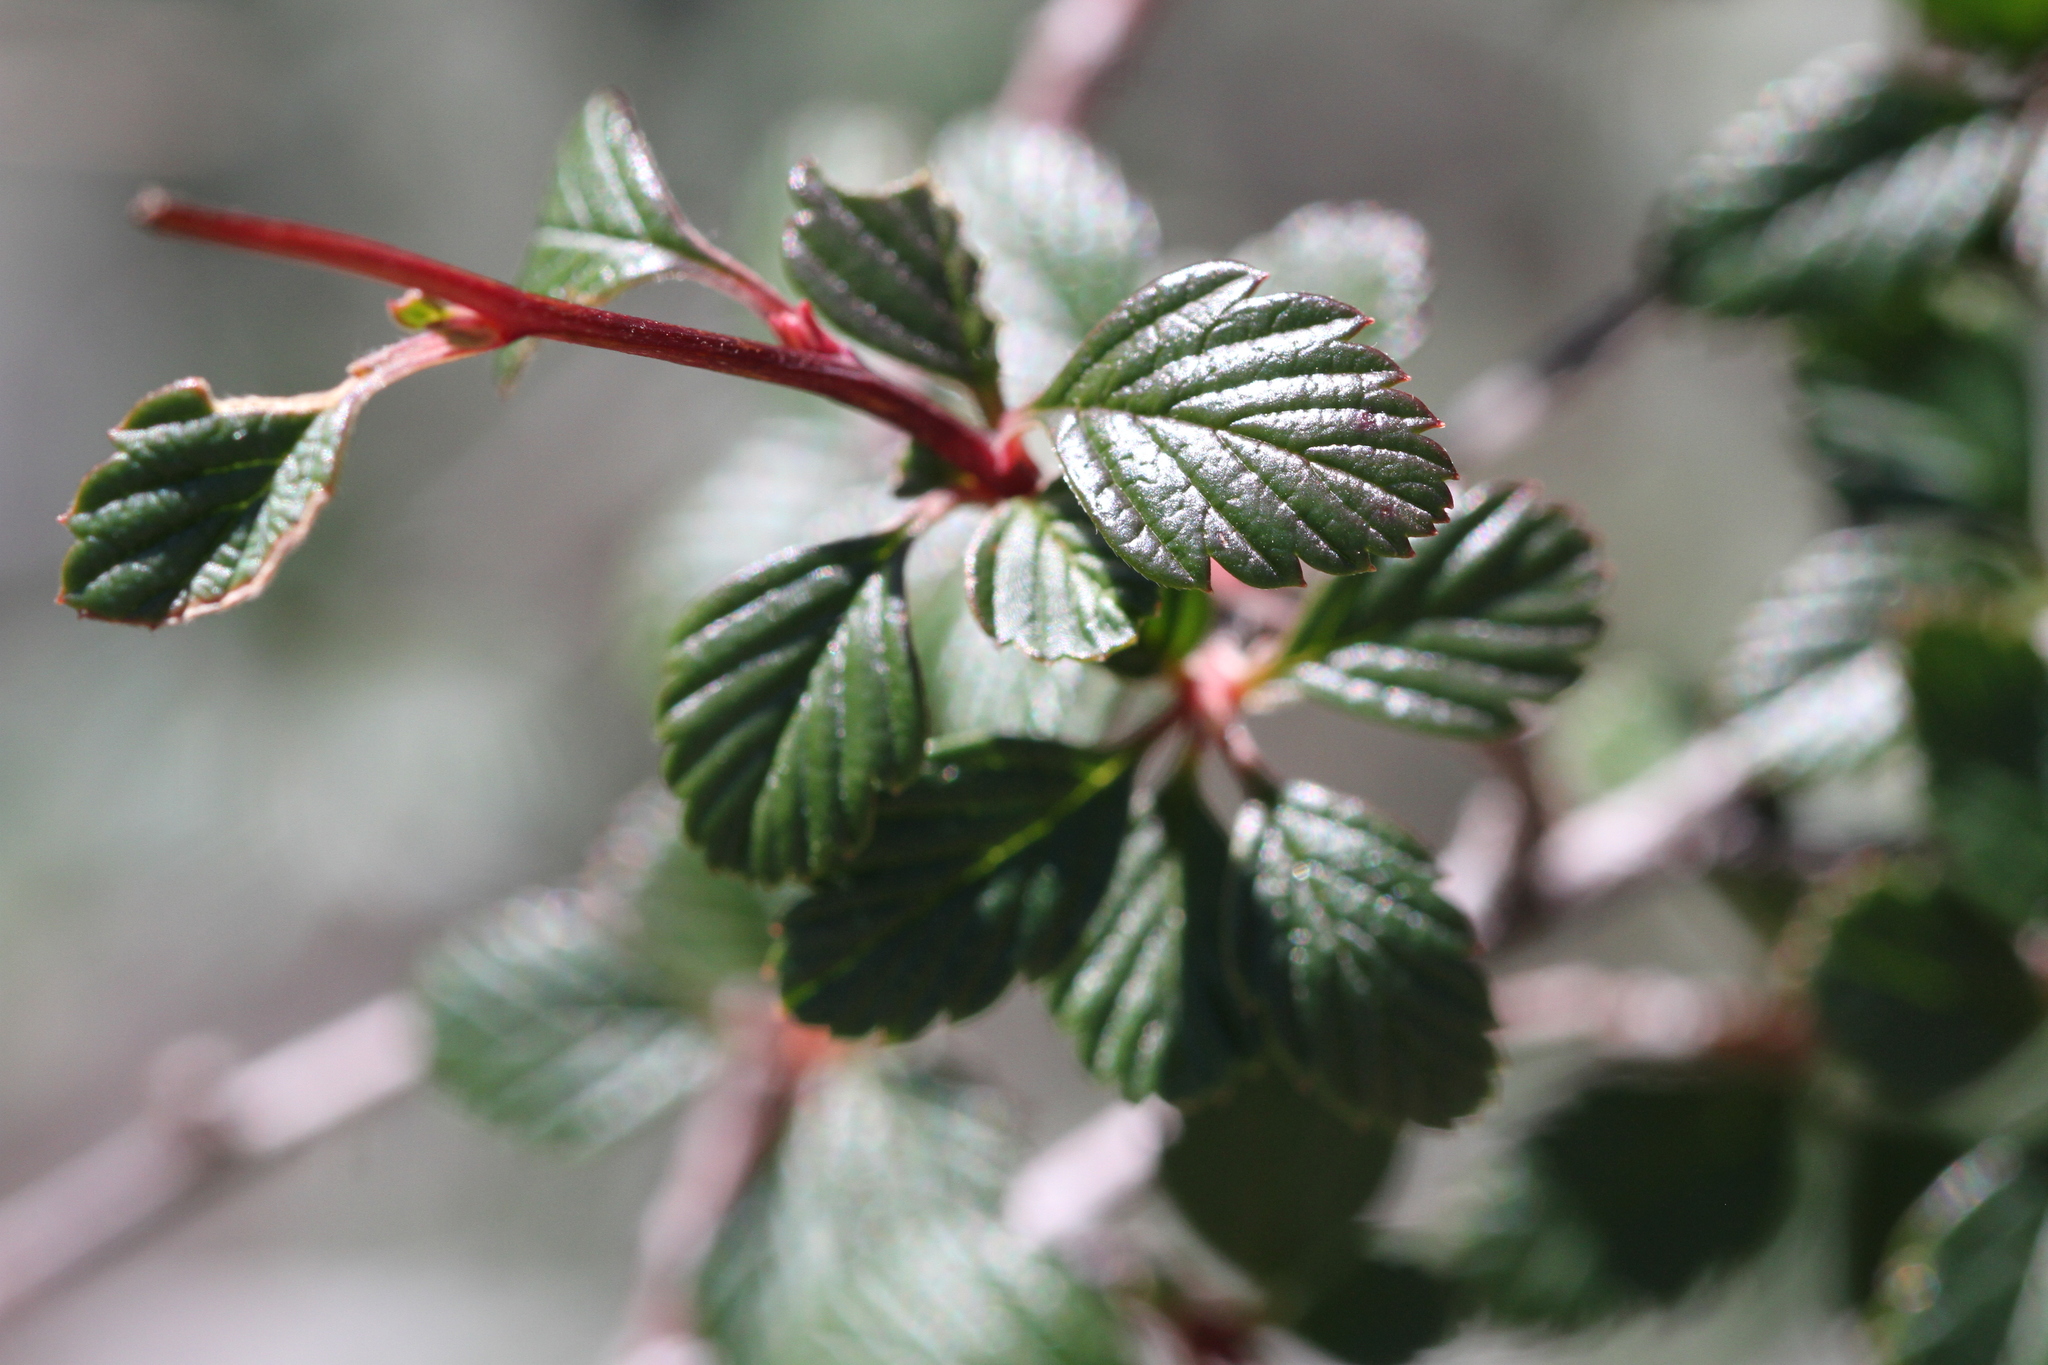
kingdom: Plantae
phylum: Tracheophyta
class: Magnoliopsida
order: Rosales
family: Rosaceae
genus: Holodiscus
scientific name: Holodiscus discolor
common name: Oceanspray
